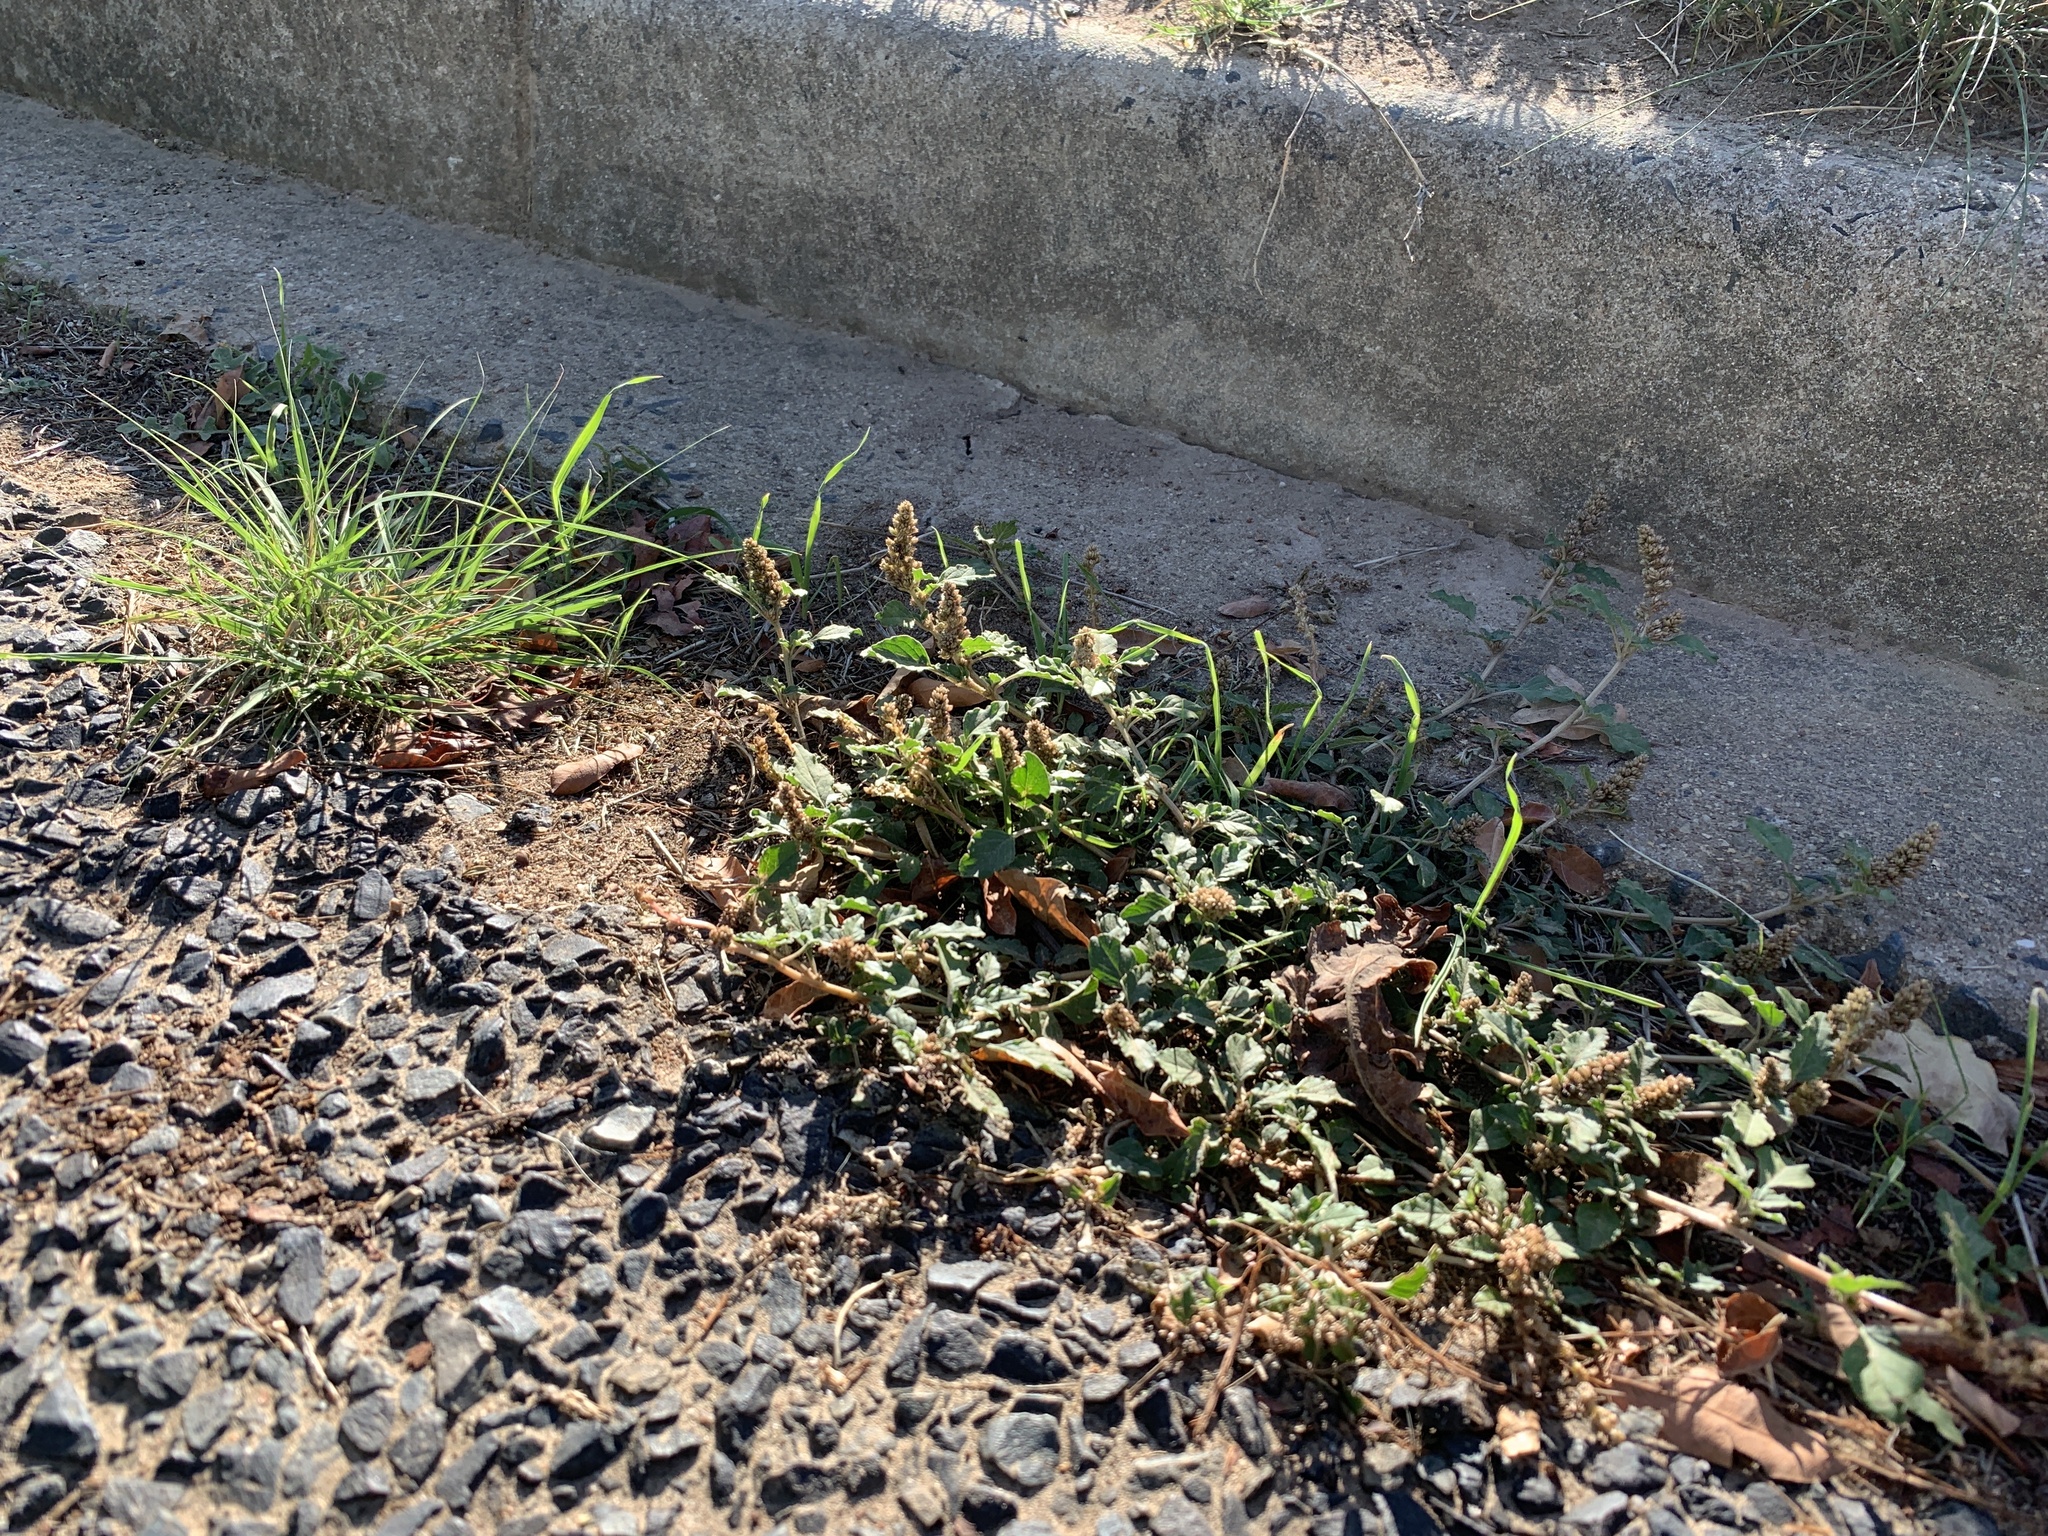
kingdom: Plantae
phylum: Tracheophyta
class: Magnoliopsida
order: Caryophyllales
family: Amaranthaceae
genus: Amaranthus
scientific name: Amaranthus deflexus
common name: Perennial pigweed
